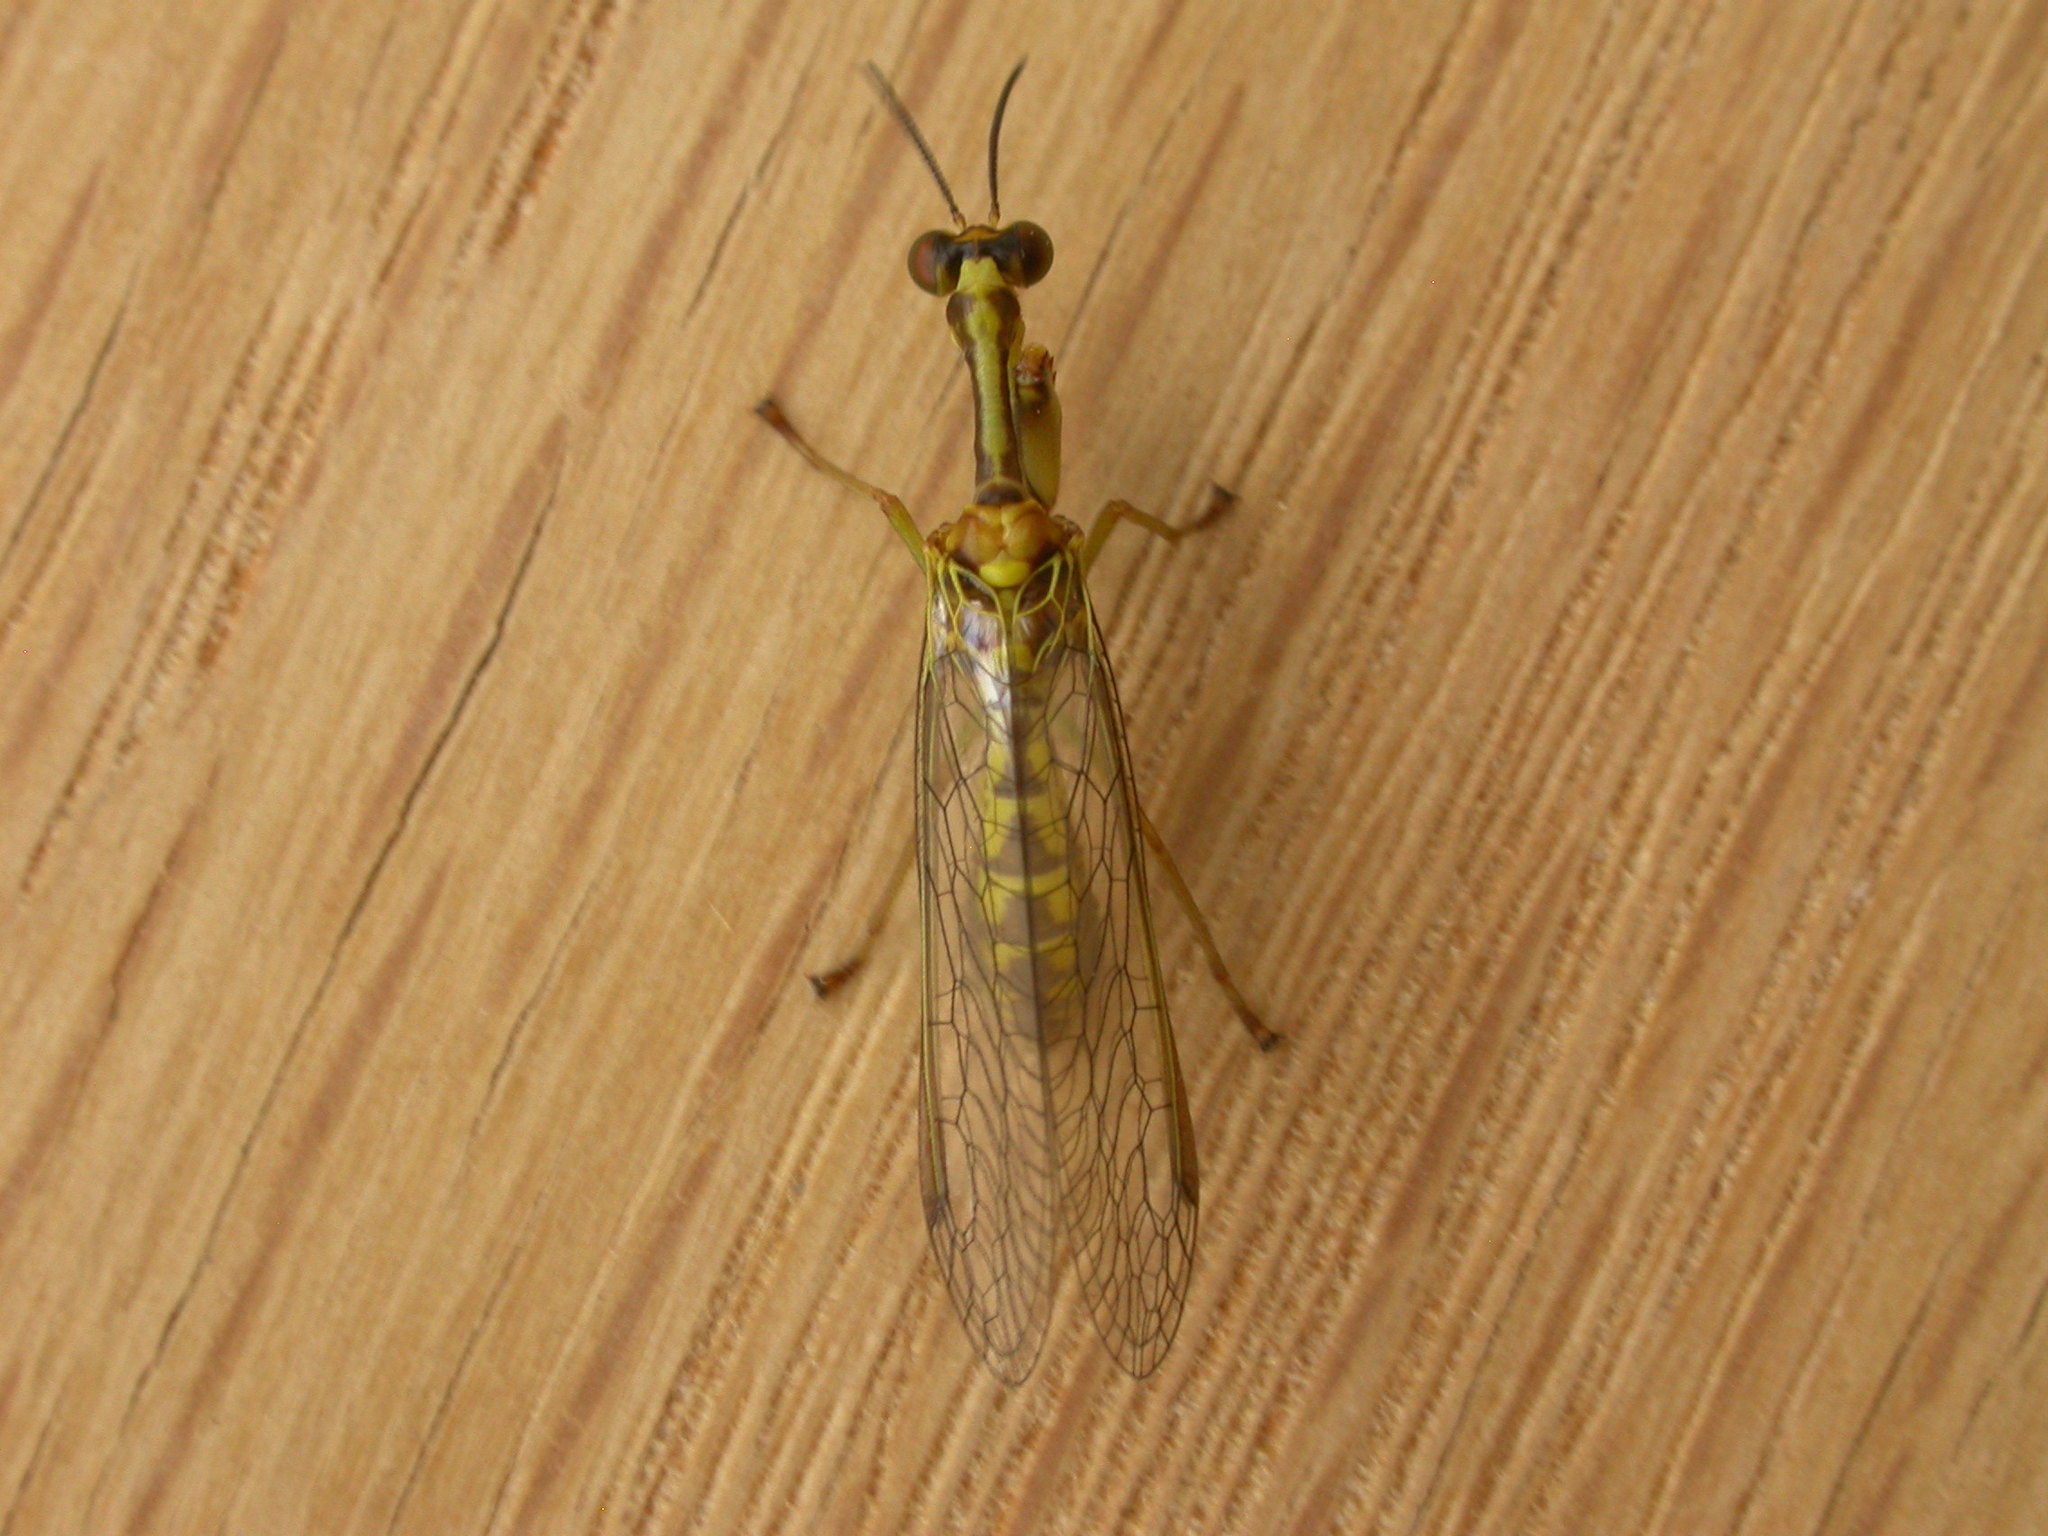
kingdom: Animalia
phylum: Arthropoda
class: Insecta
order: Neuroptera
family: Mantispidae
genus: Spaminta
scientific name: Spaminta minjerribae
